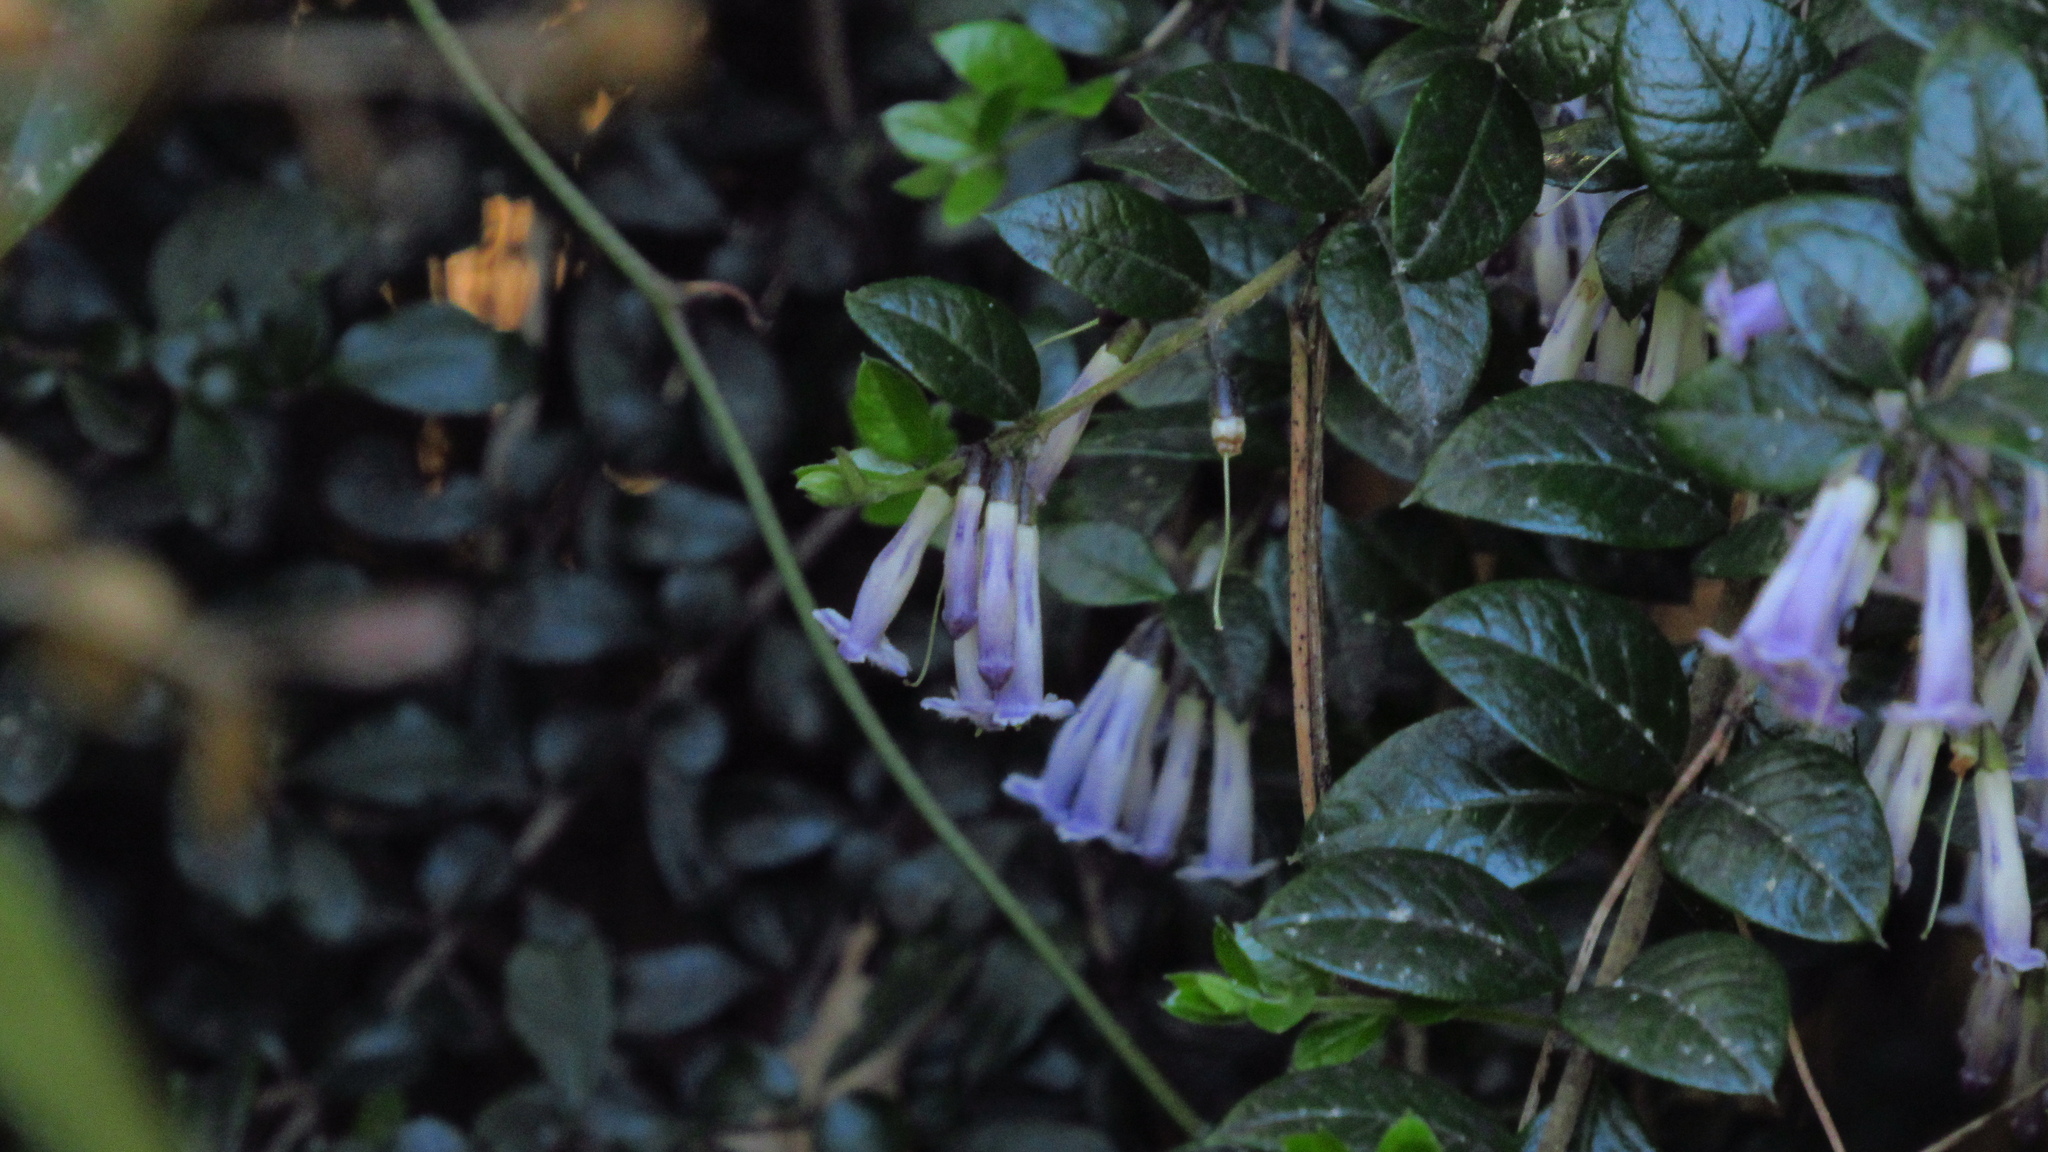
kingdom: Plantae
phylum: Tracheophyta
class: Magnoliopsida
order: Lamiales
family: Verbenaceae
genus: Rhaphithamnus
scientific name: Rhaphithamnus spinosus
